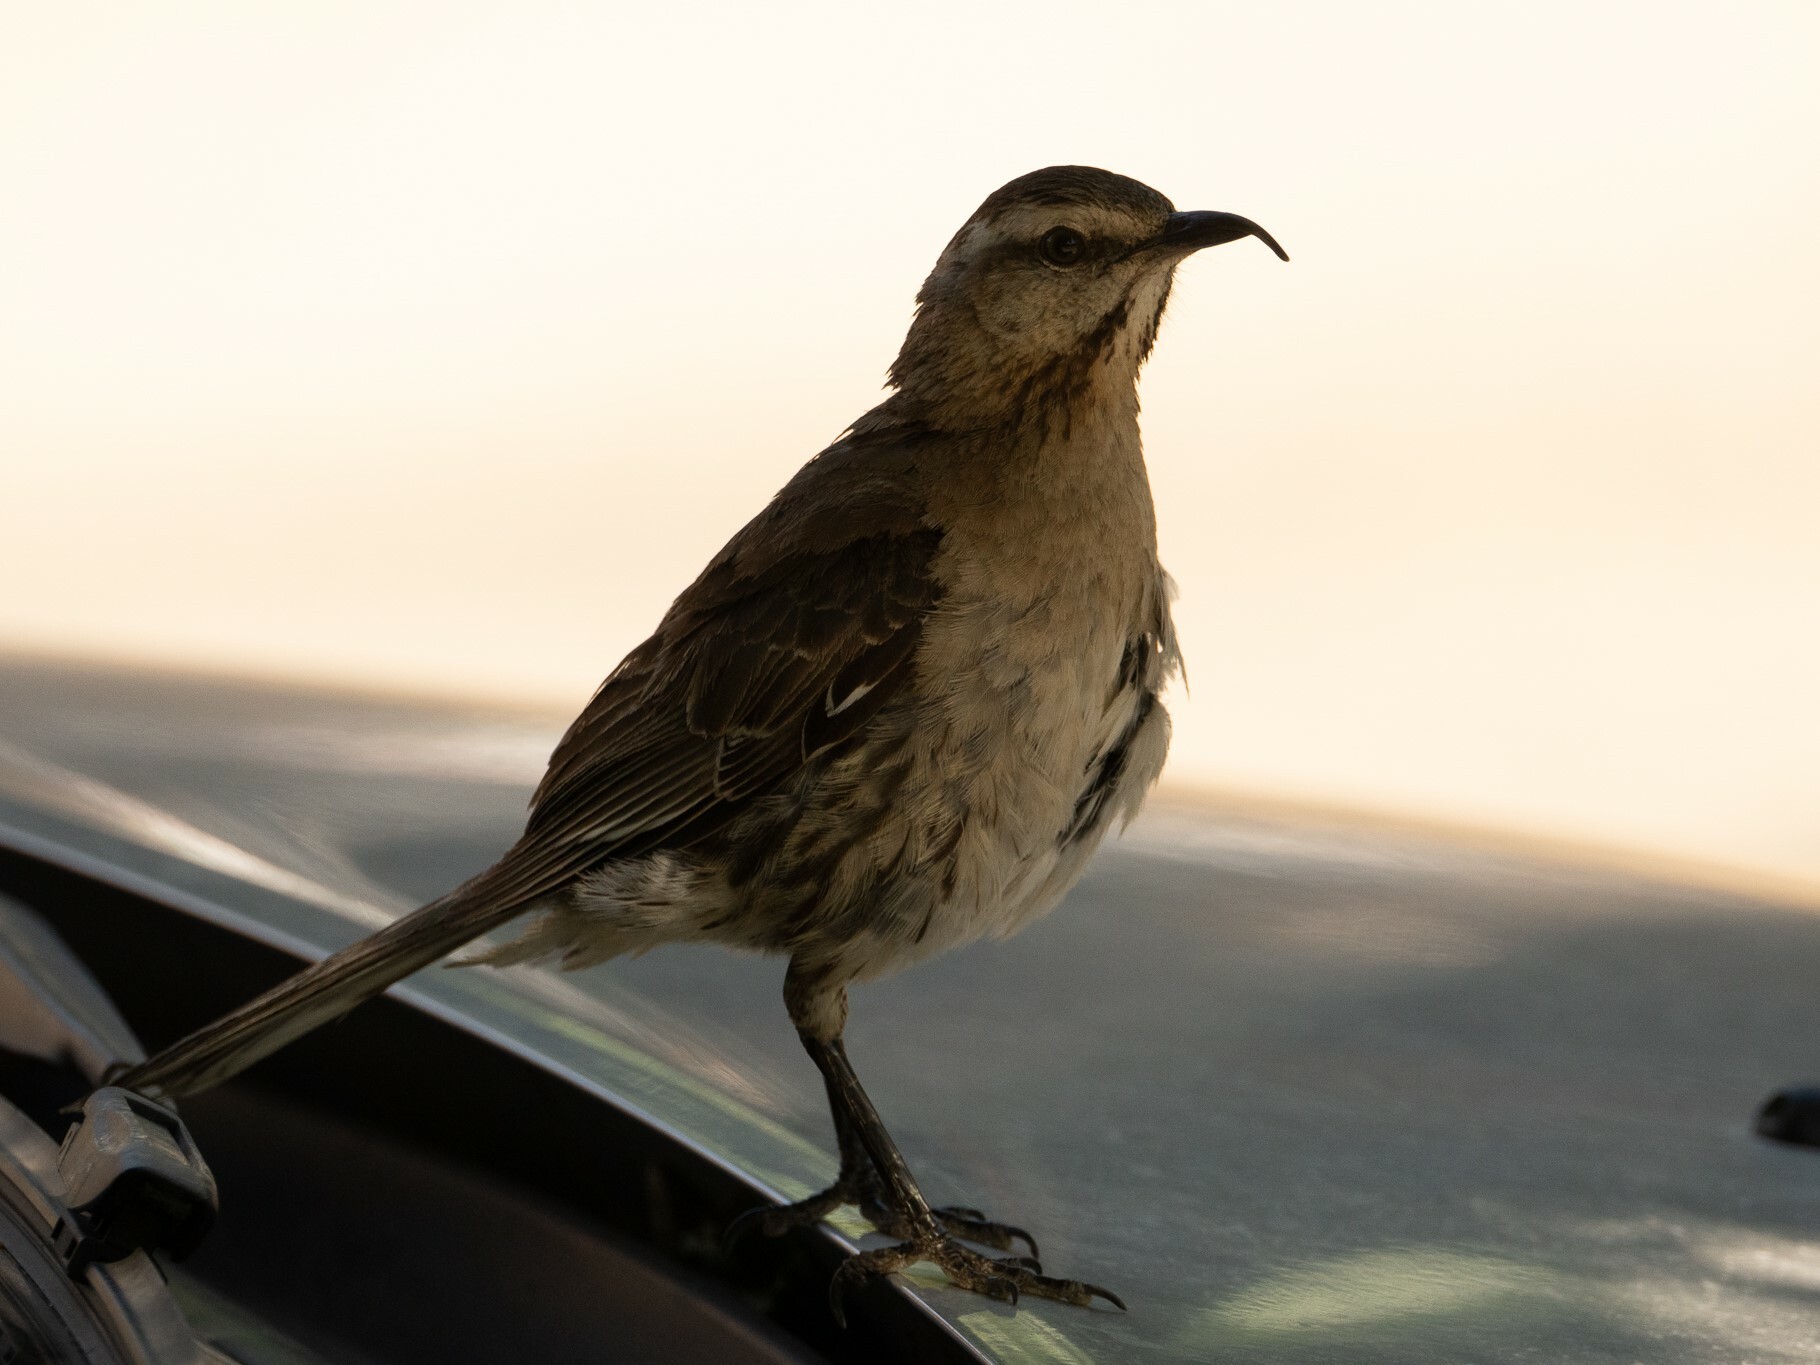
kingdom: Animalia
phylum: Chordata
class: Aves
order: Passeriformes
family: Mimidae
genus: Mimus
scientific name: Mimus thenca
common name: Chilean mockingbird
